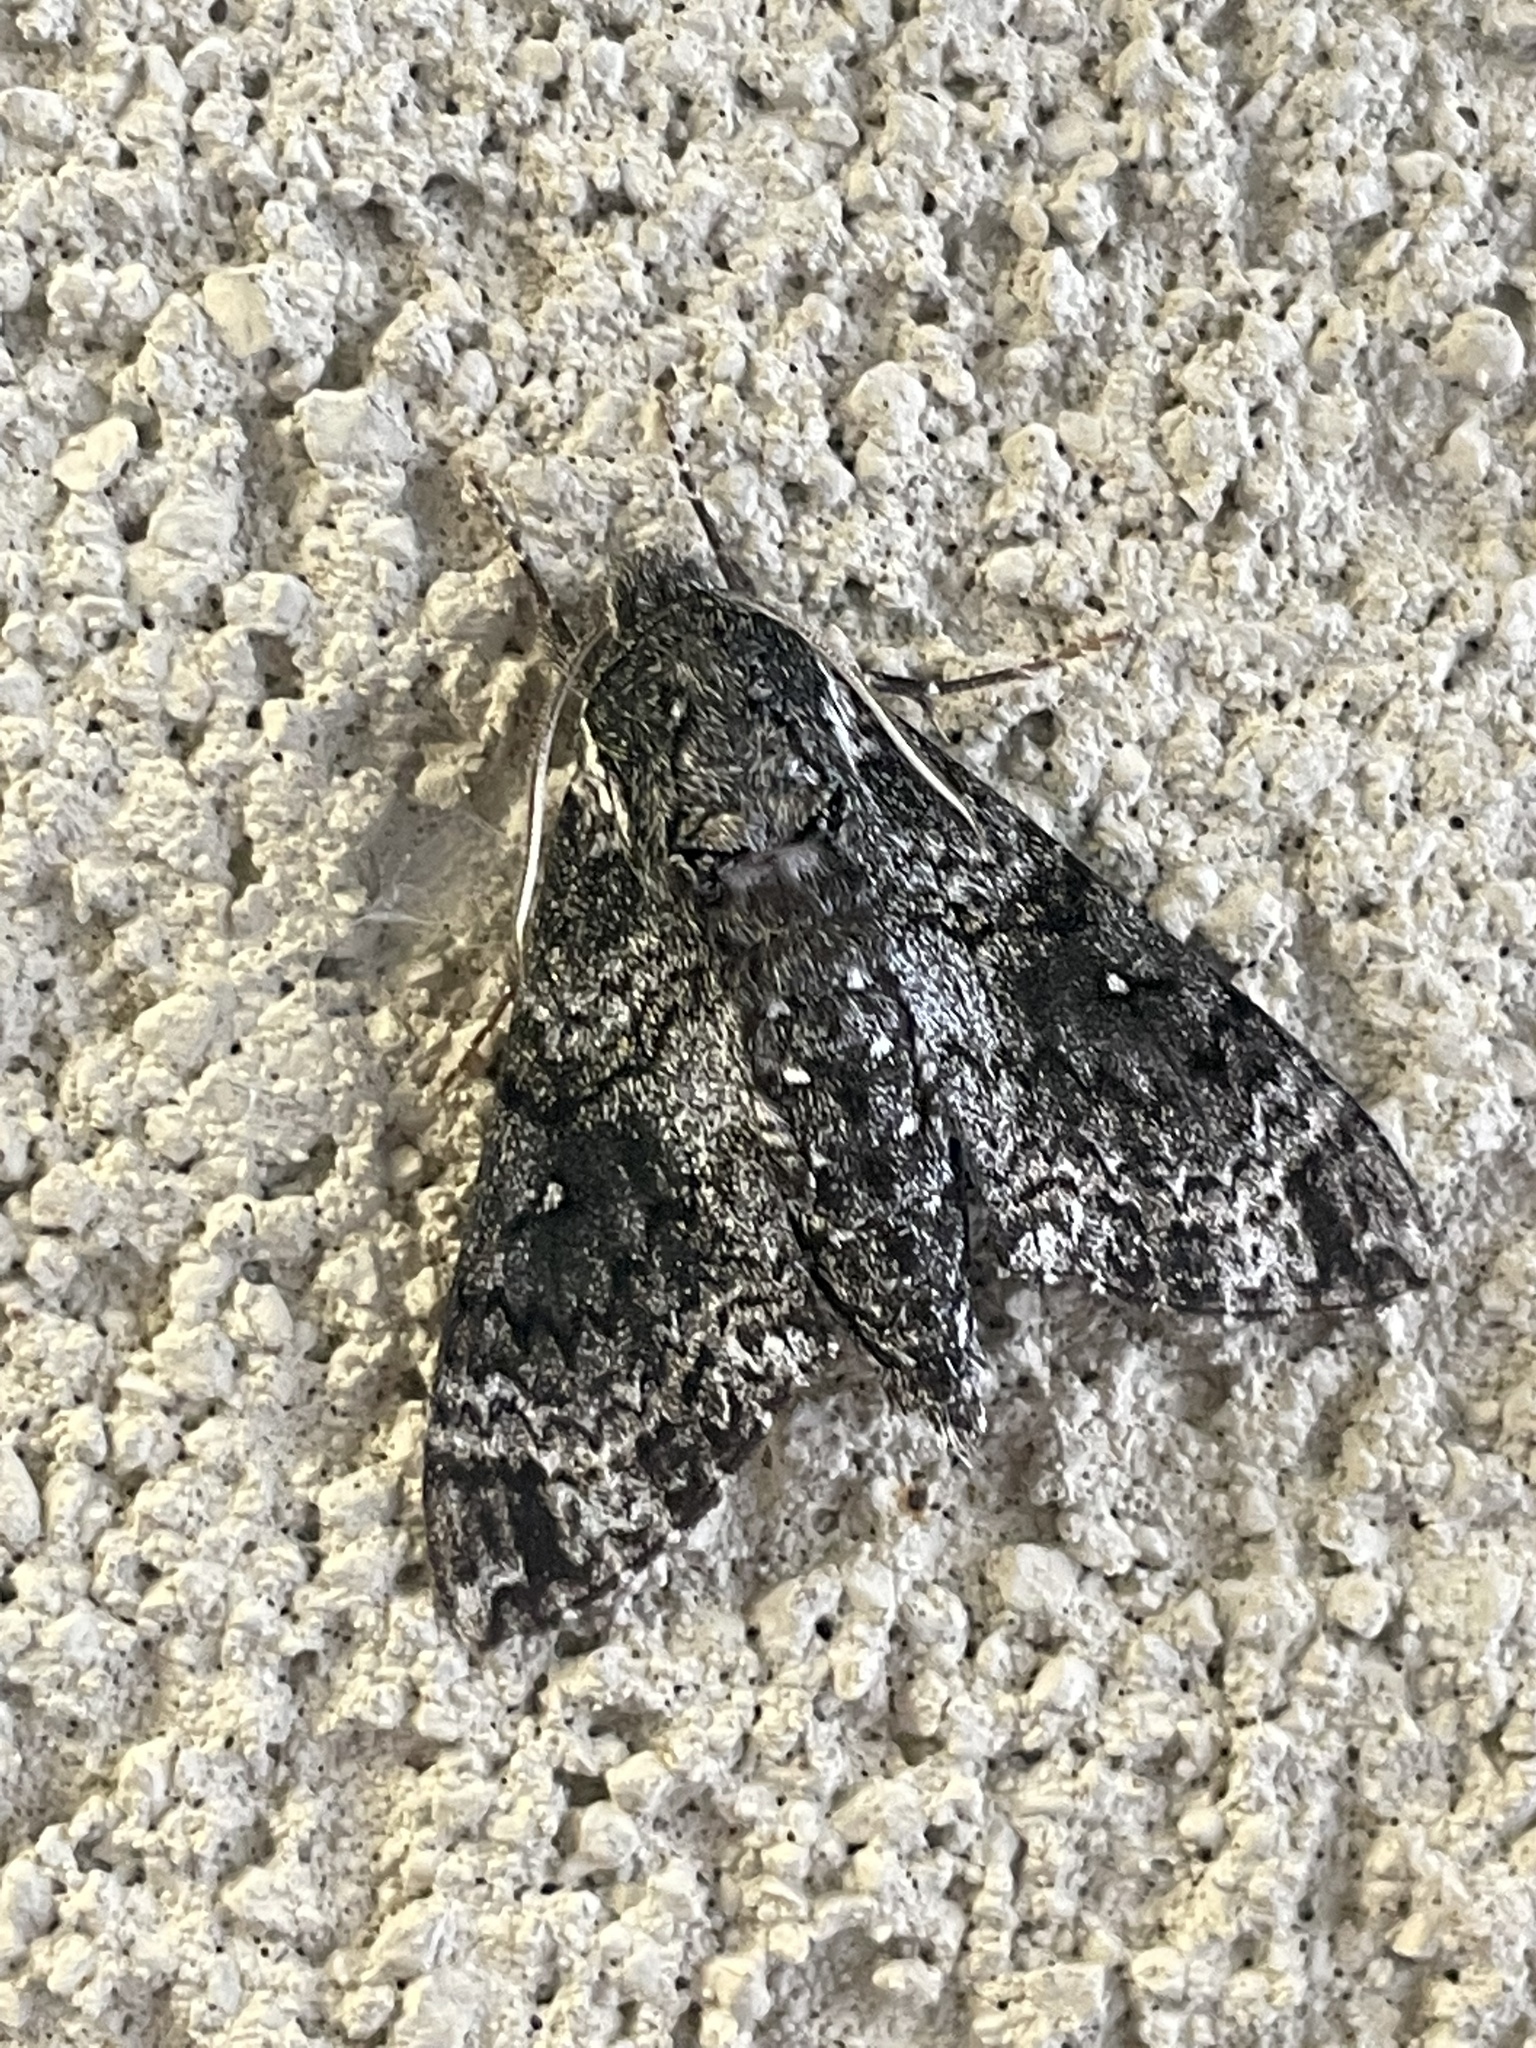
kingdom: Animalia
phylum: Arthropoda
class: Insecta
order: Lepidoptera
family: Sphingidae
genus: Dolba
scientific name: Dolba hyloeus
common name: Pawpaw sphinx
